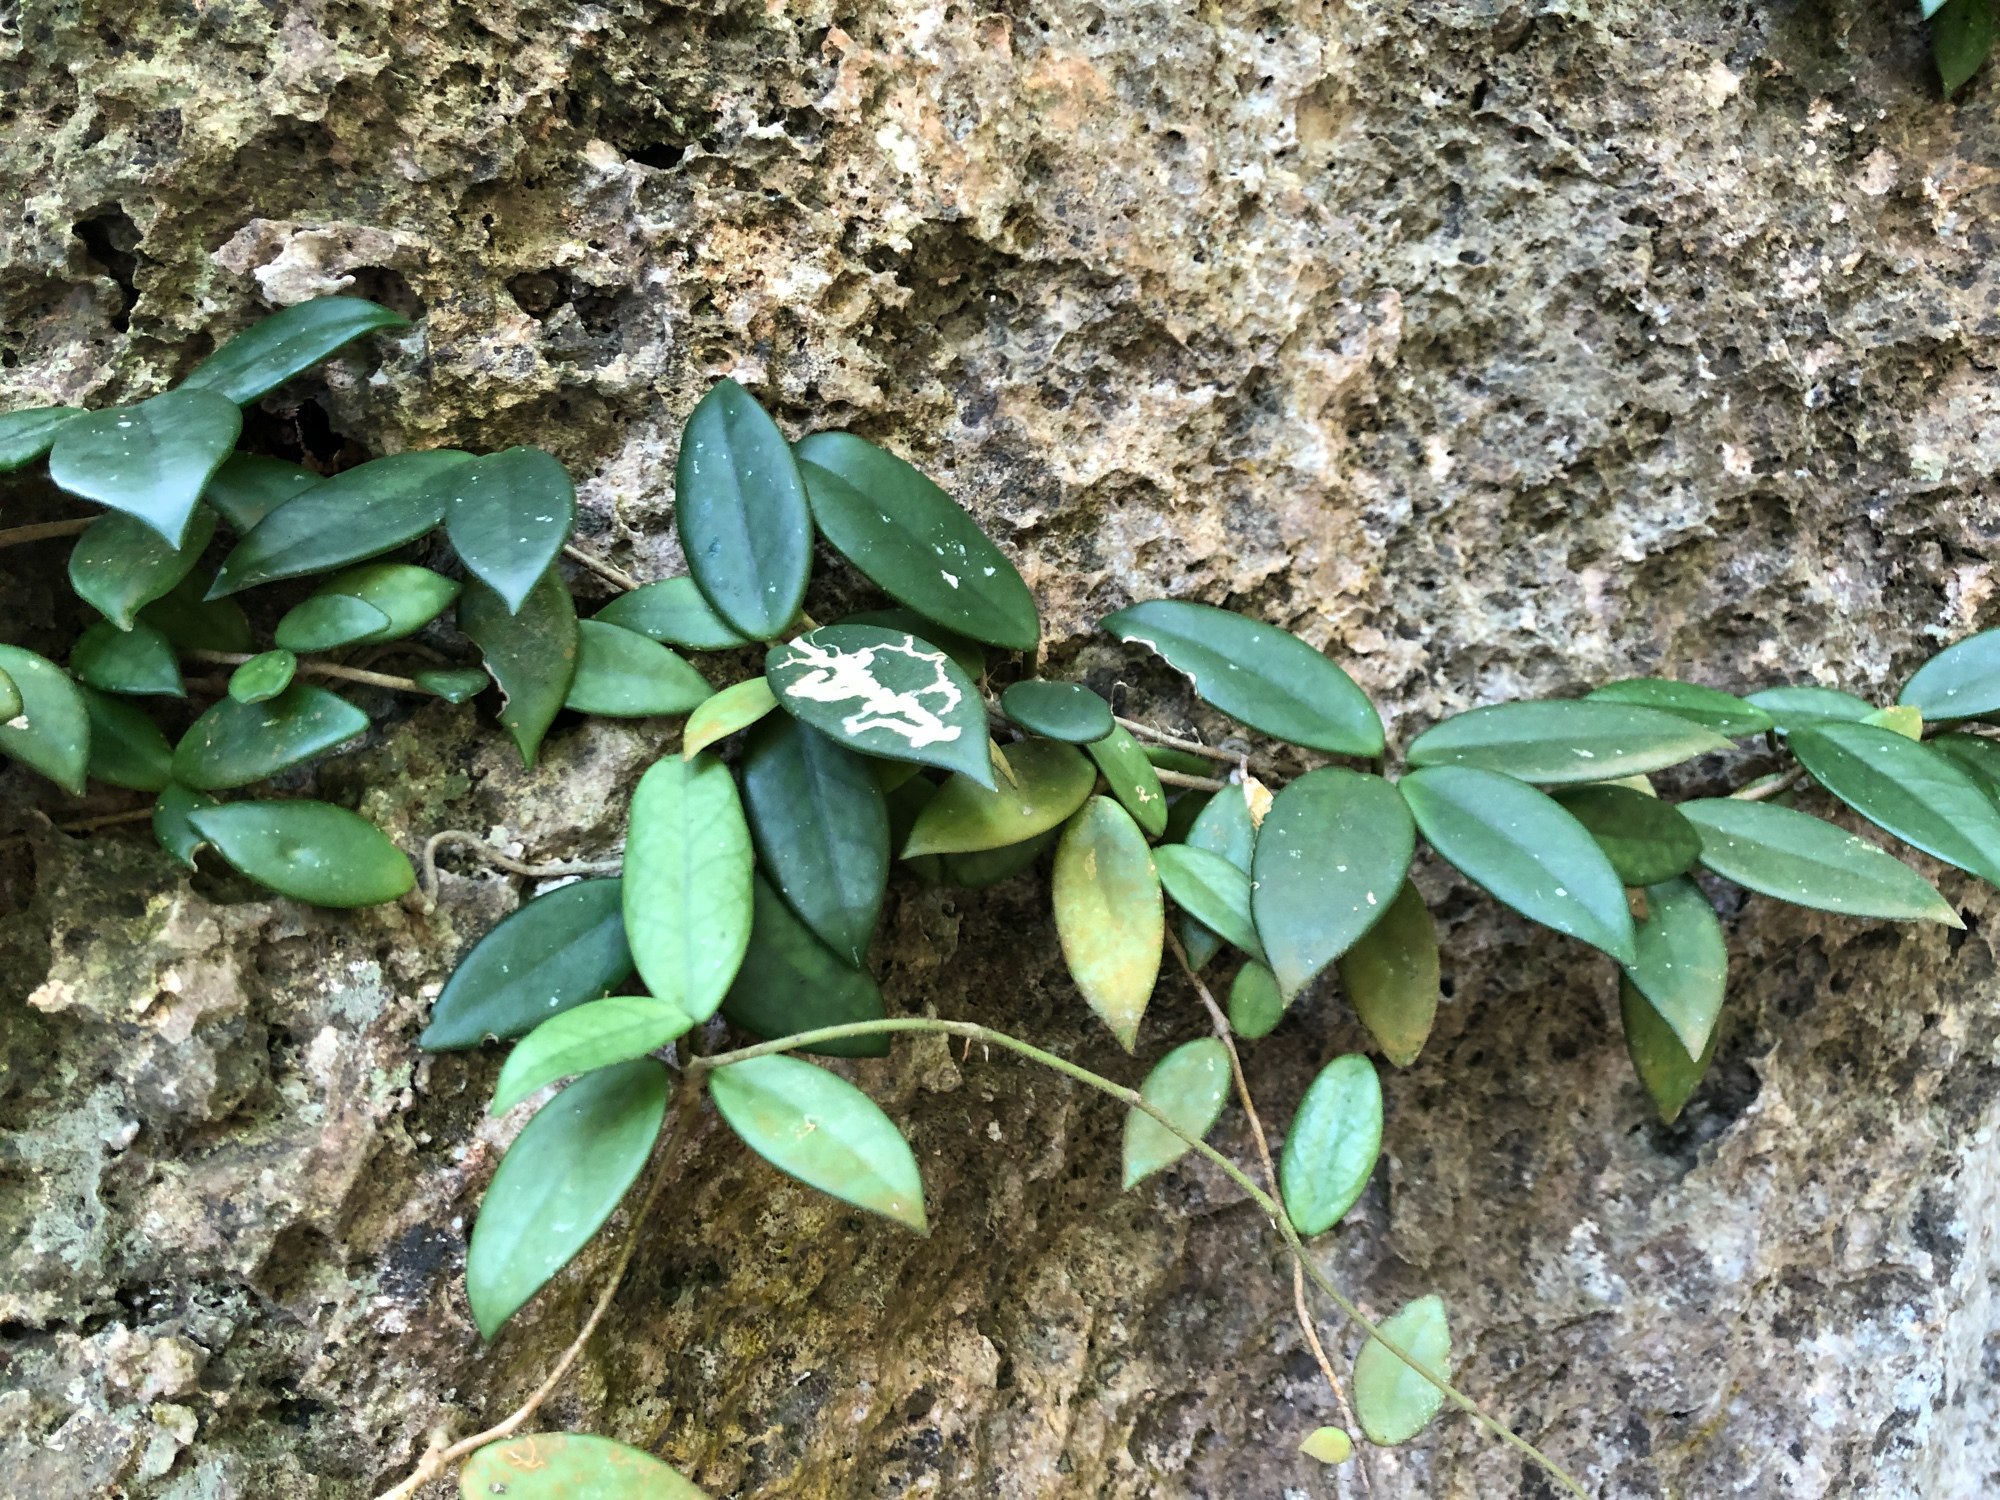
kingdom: Plantae
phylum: Tracheophyta
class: Magnoliopsida
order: Gentianales
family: Apocynaceae
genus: Hoya
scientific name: Hoya carnosa
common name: Honeyplant
